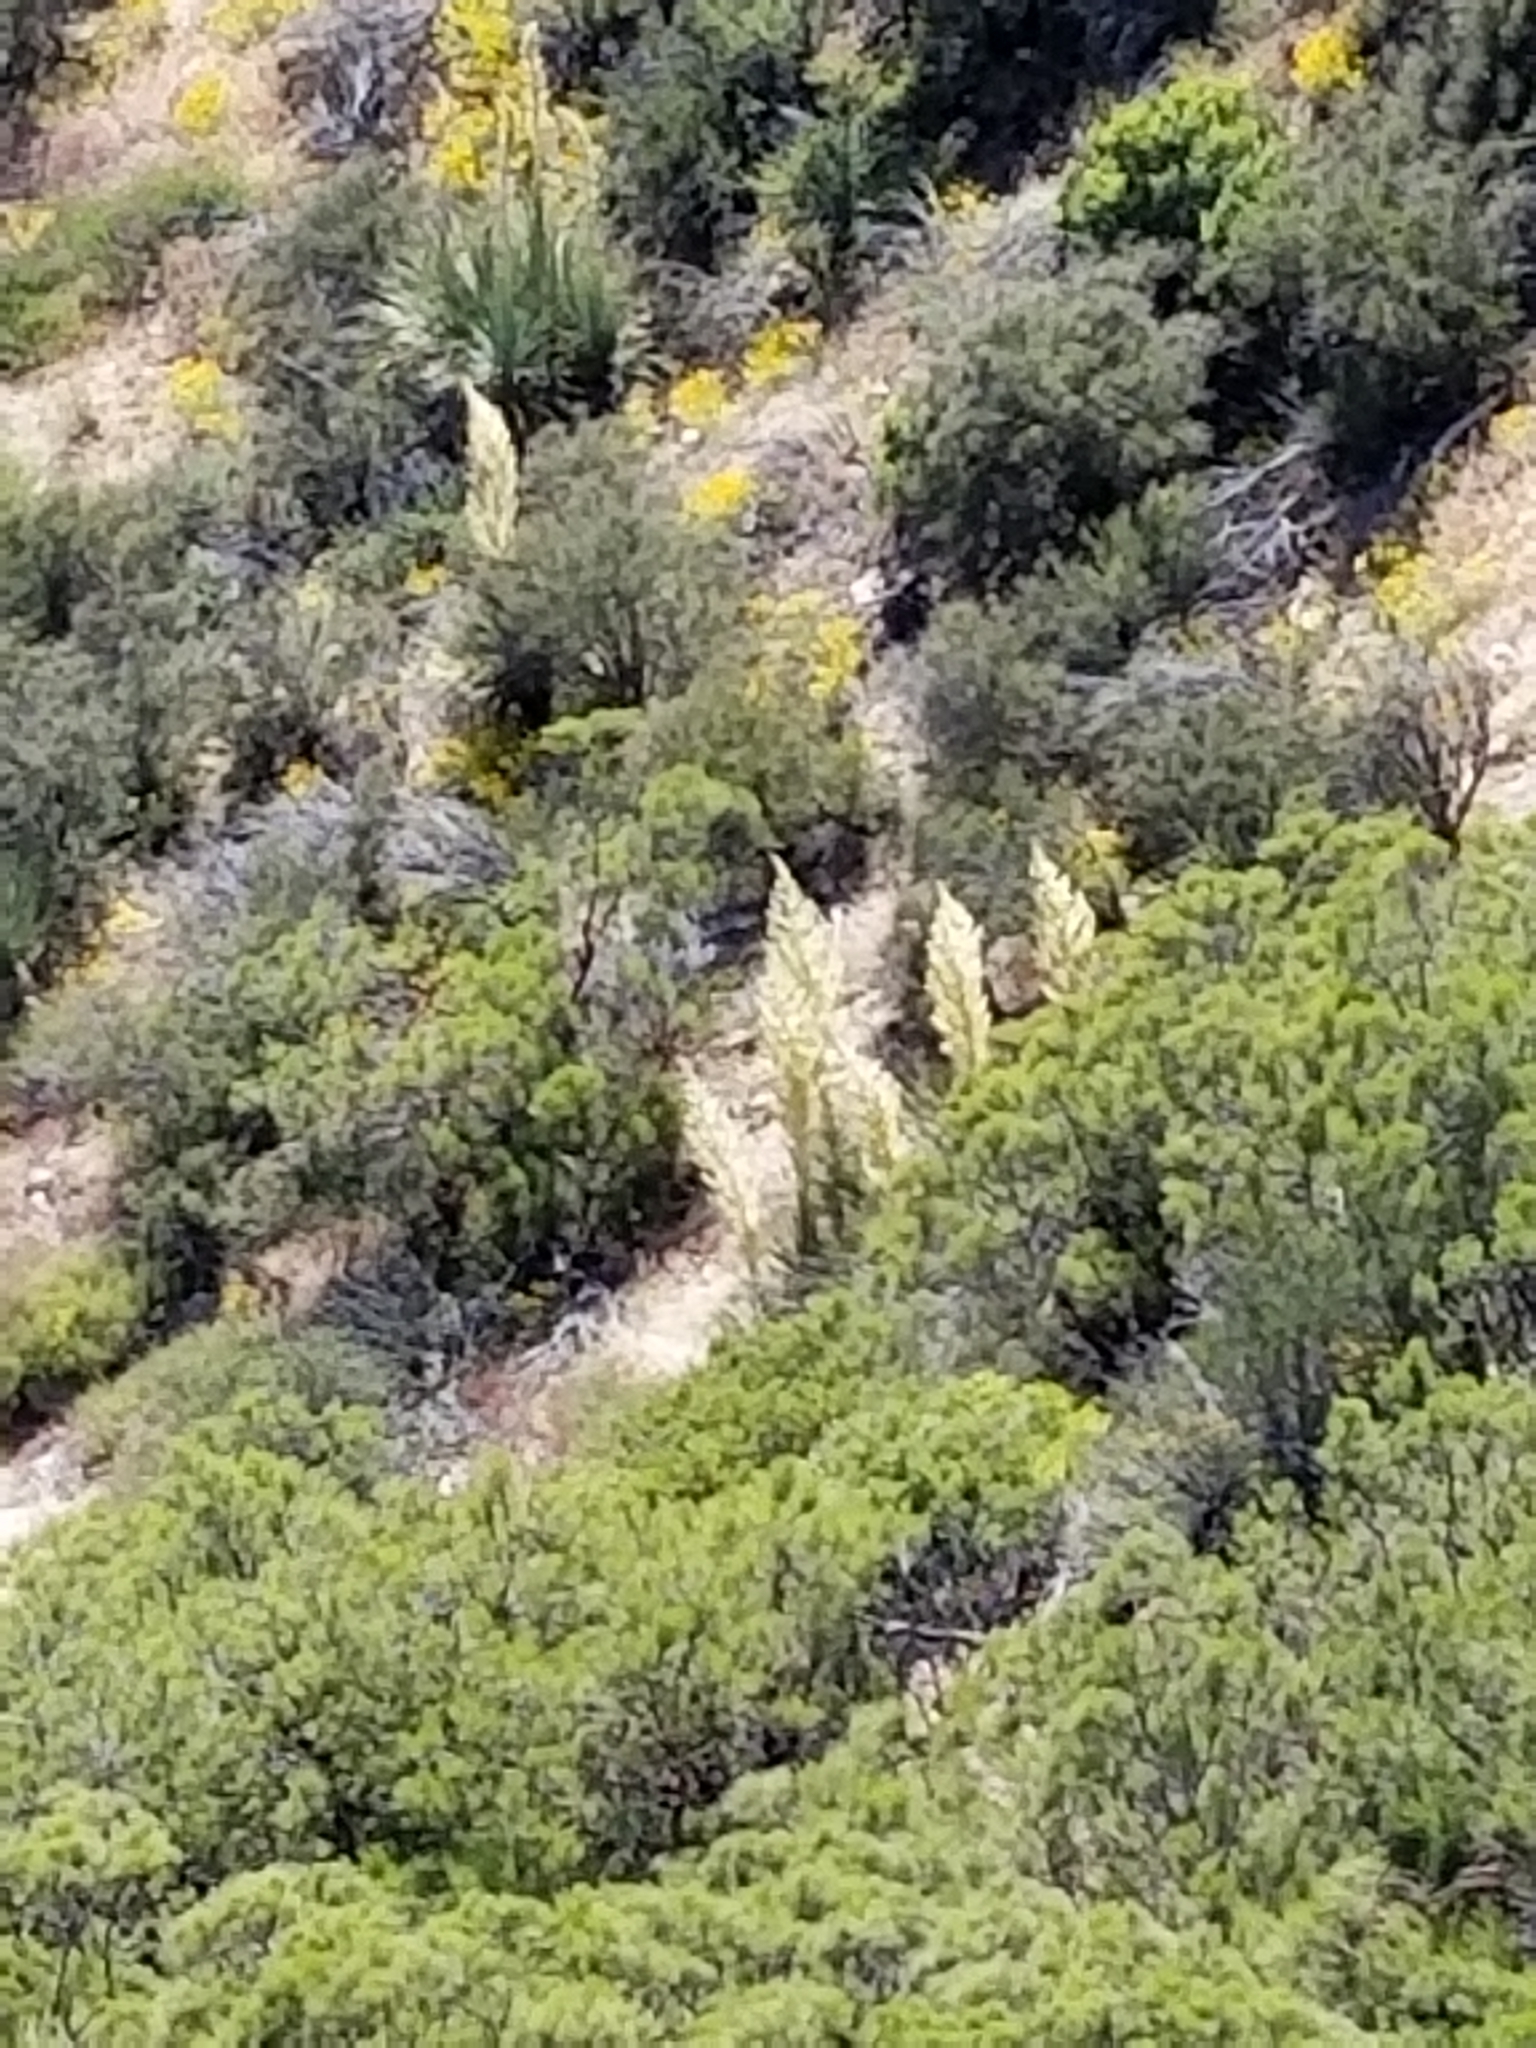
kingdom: Plantae
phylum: Tracheophyta
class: Liliopsida
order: Asparagales
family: Asparagaceae
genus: Nolina
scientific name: Nolina parryi
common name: Parry nolina
